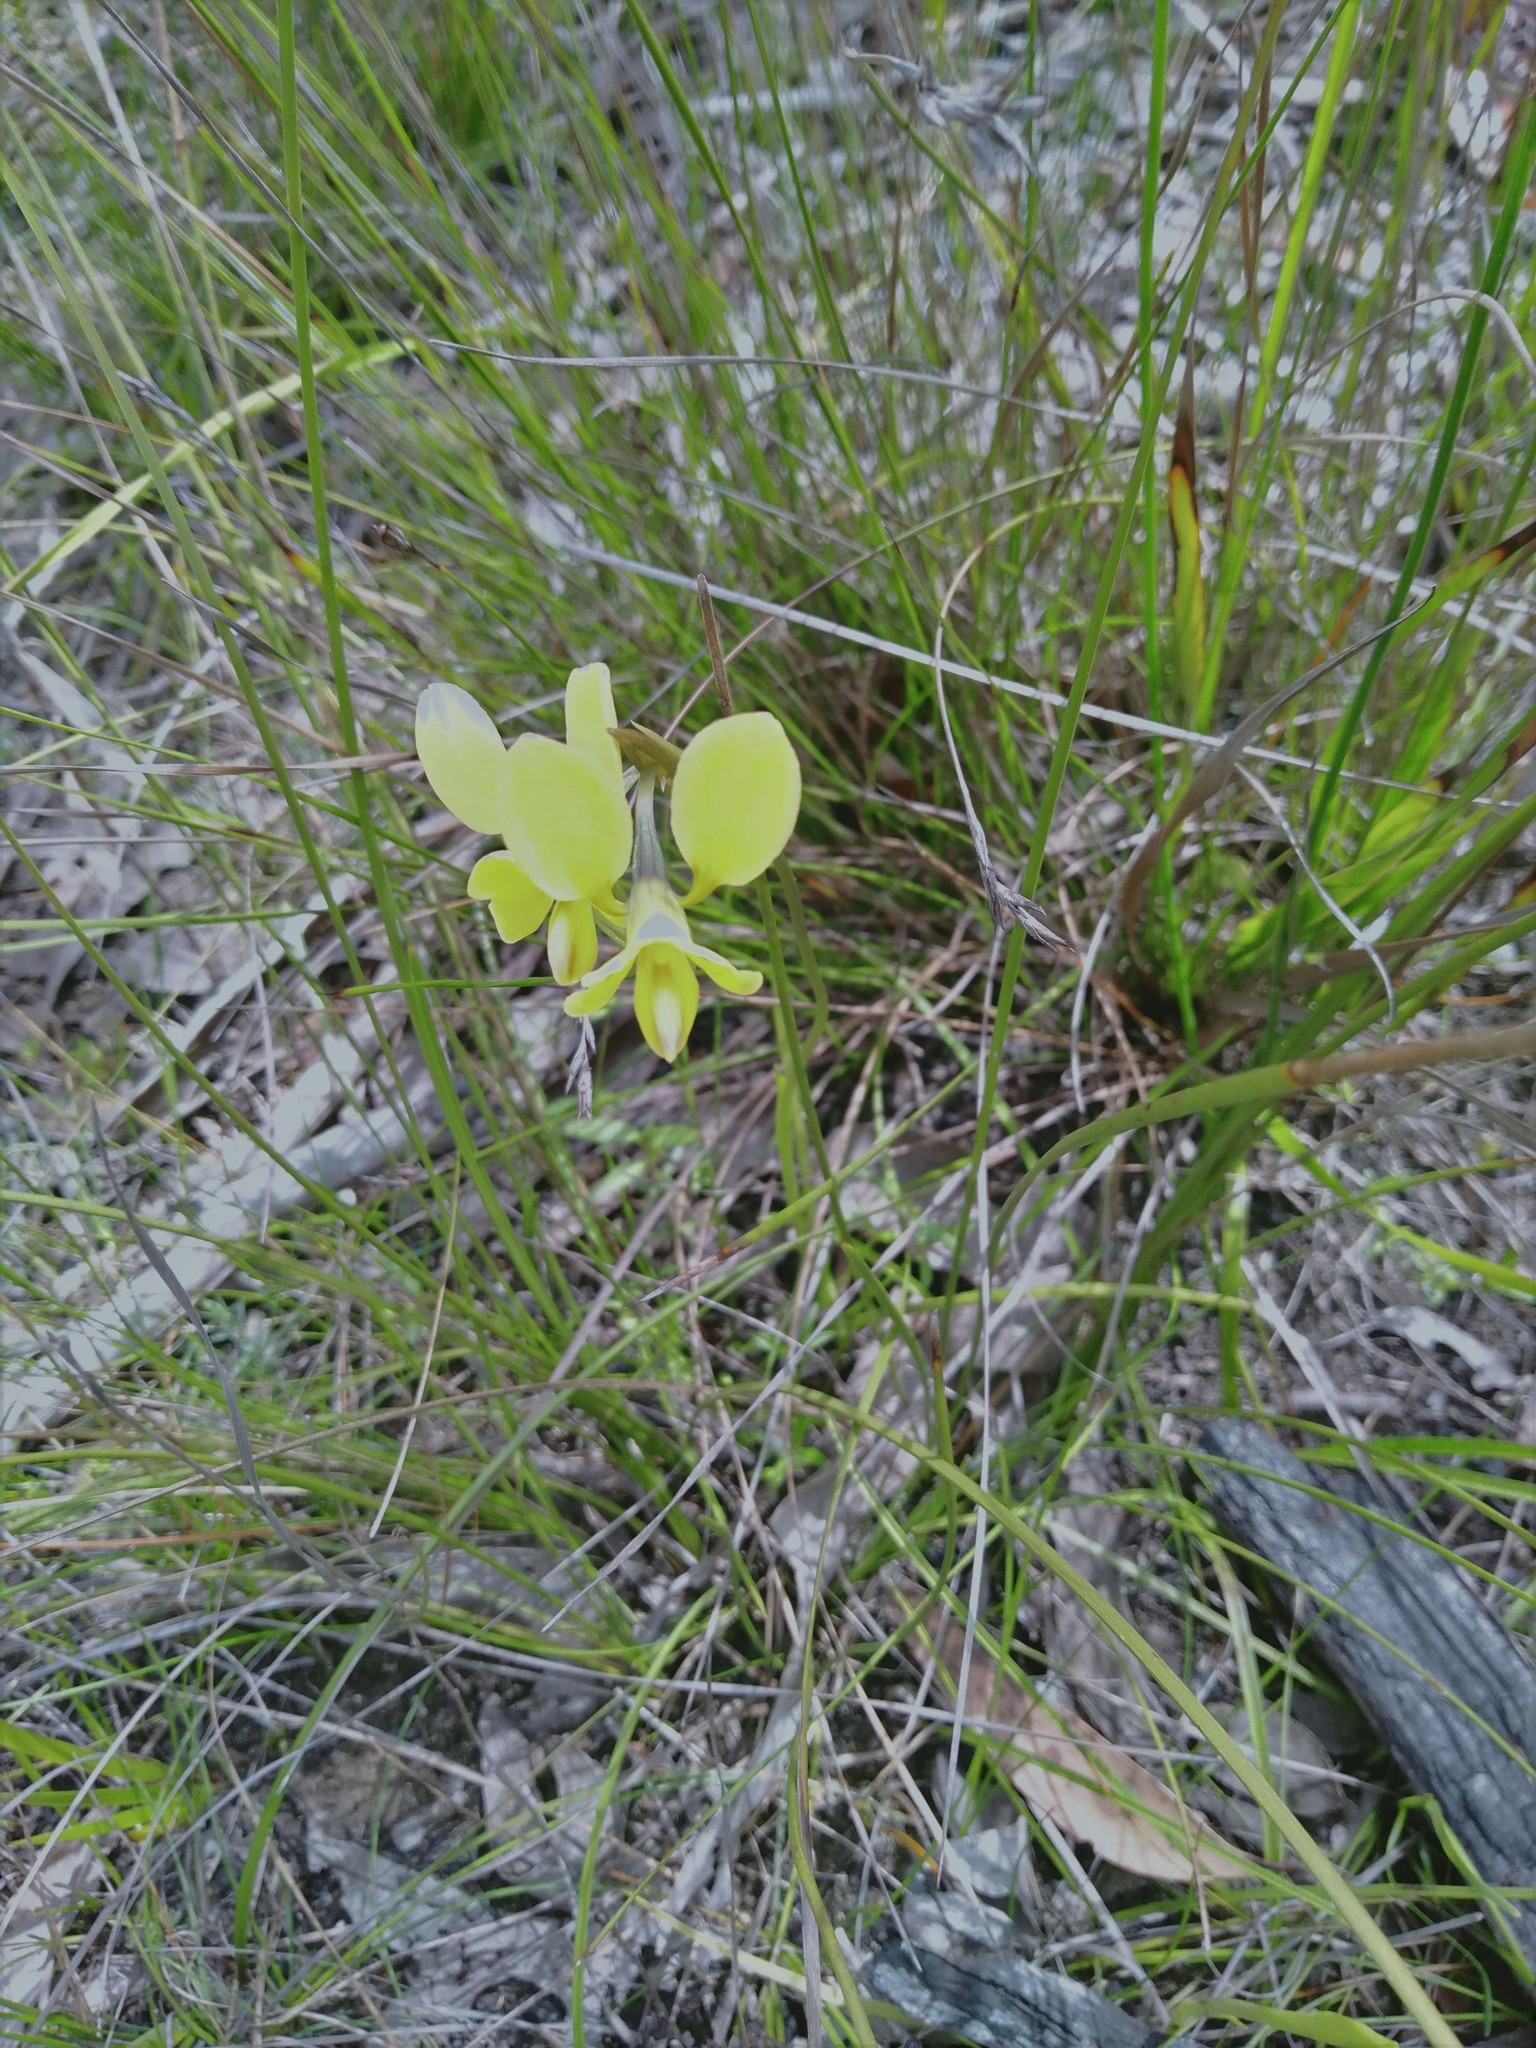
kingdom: Plantae
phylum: Tracheophyta
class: Liliopsida
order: Asparagales
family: Orchidaceae
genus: Diuris
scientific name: Diuris orientis
